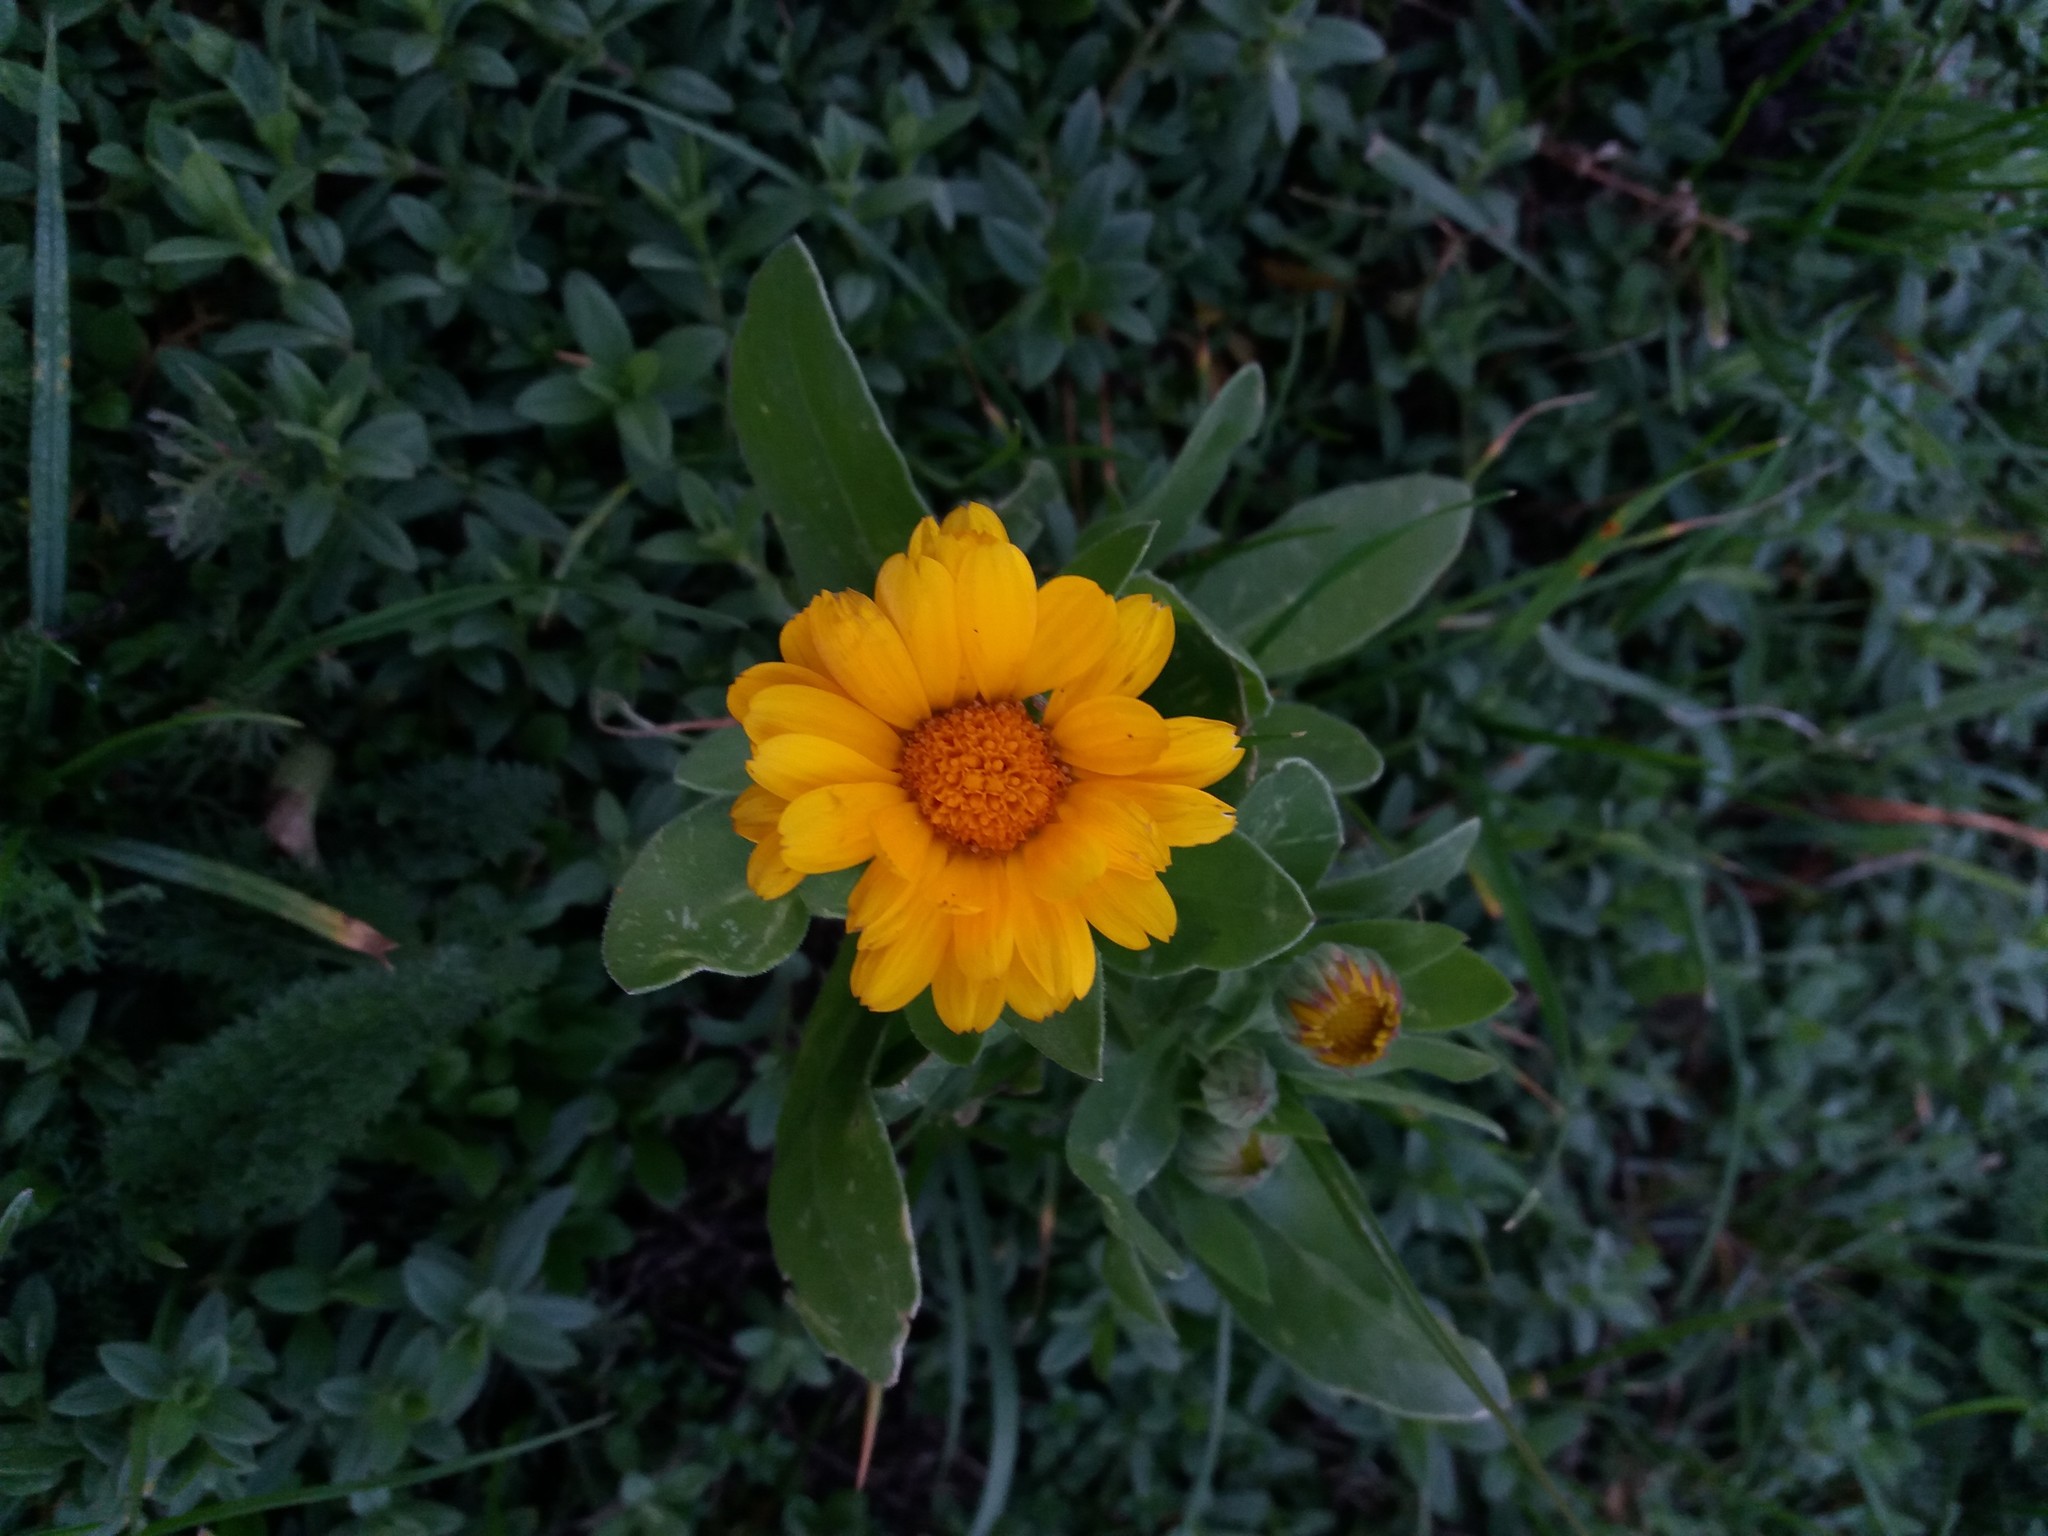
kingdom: Plantae
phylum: Tracheophyta
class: Magnoliopsida
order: Asterales
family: Asteraceae
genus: Calendula
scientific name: Calendula officinalis
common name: Pot marigold
